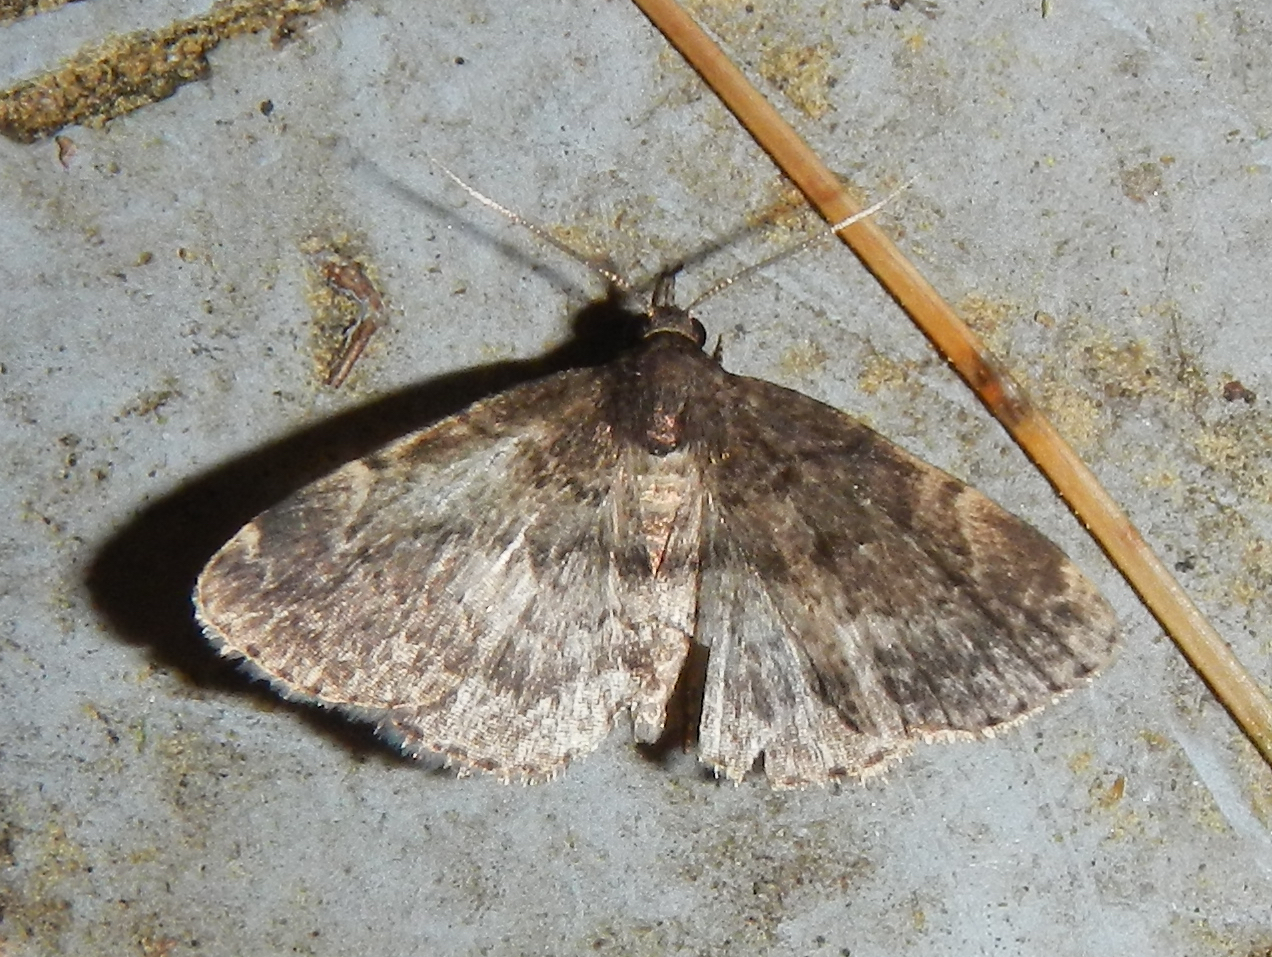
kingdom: Animalia
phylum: Arthropoda
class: Insecta
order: Lepidoptera
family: Erebidae
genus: Idia
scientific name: Idia forbesii
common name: Forbes' idia moth
